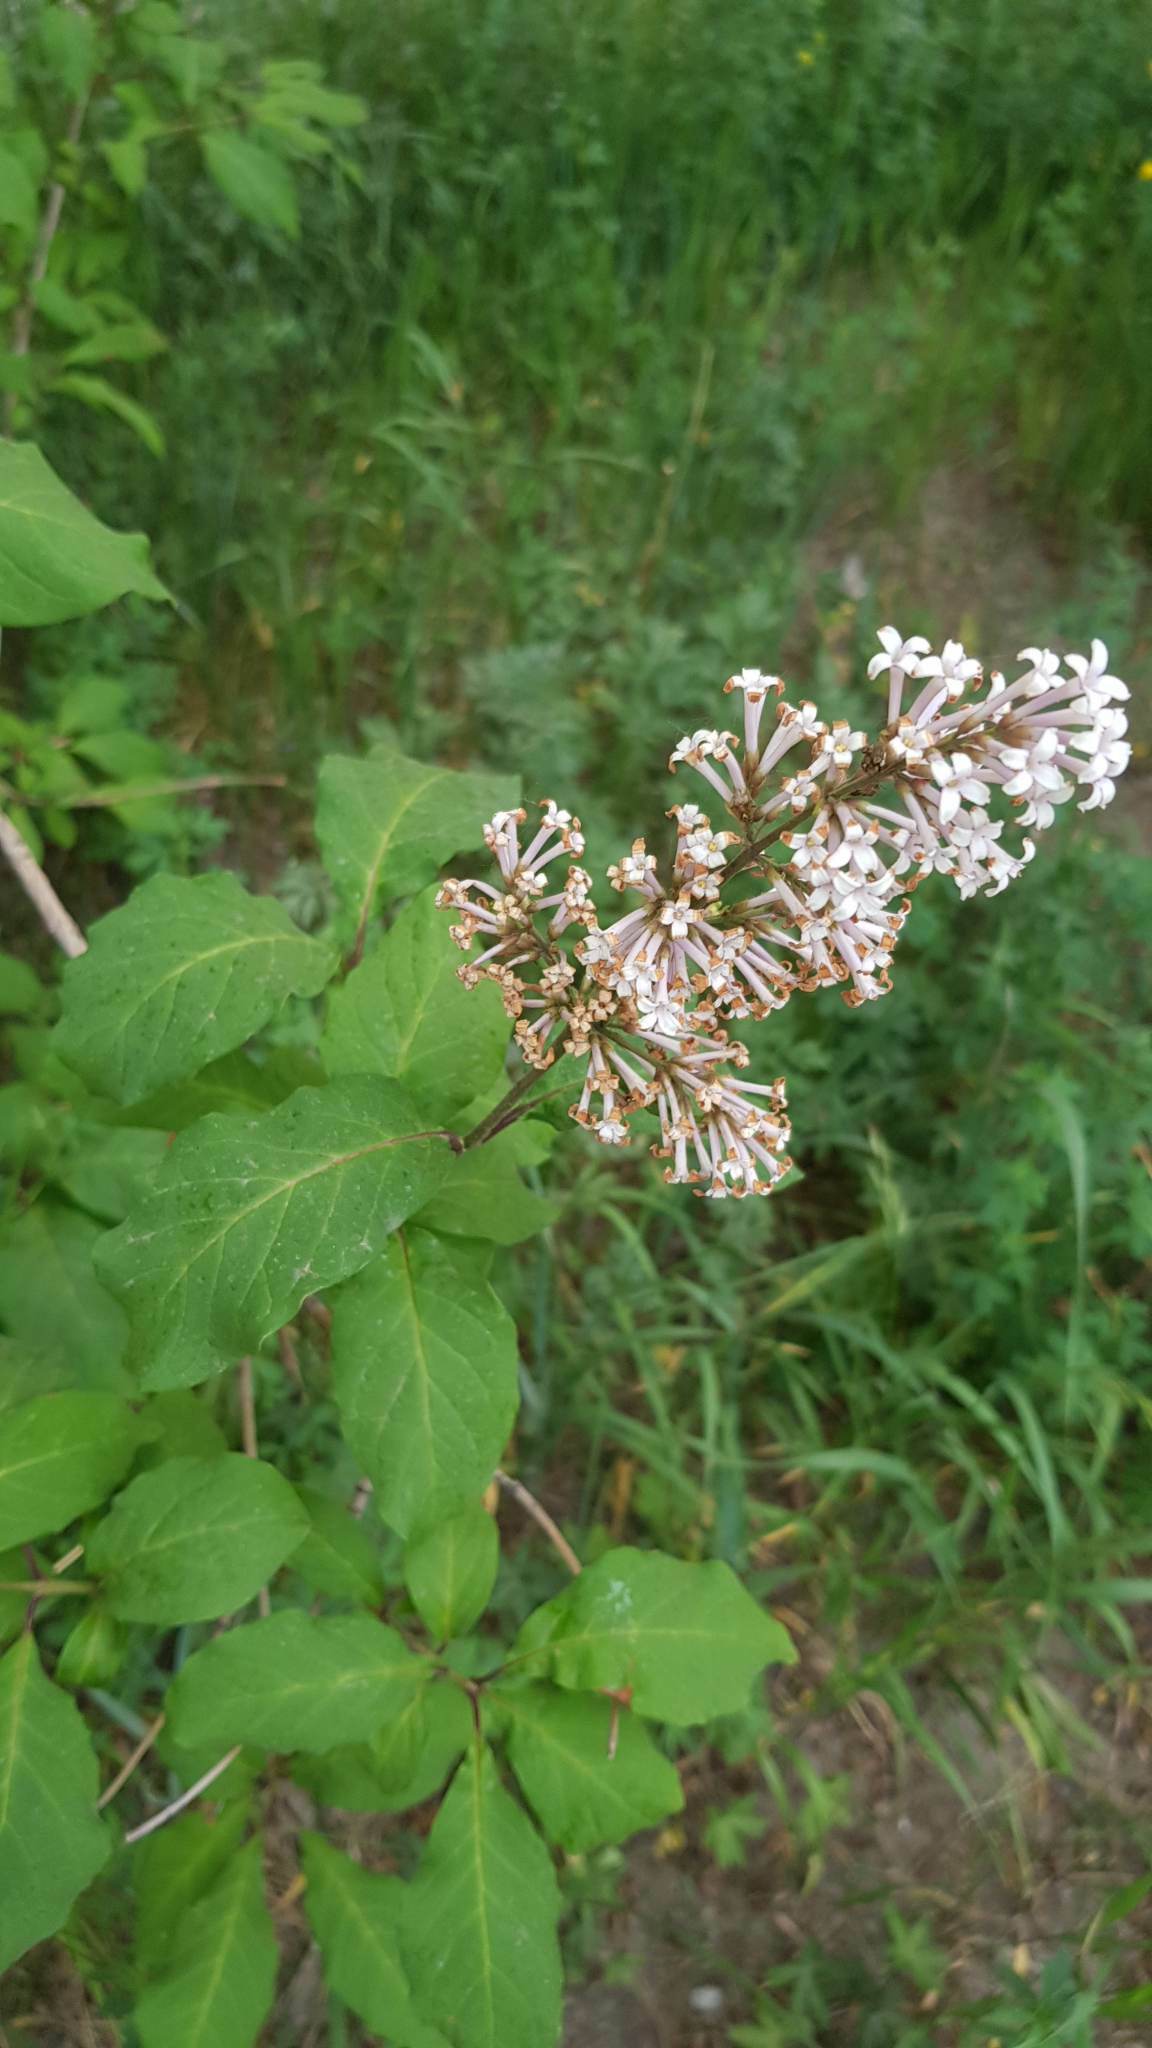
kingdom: Plantae
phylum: Tracheophyta
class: Magnoliopsida
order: Lamiales
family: Oleaceae
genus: Syringa
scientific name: Syringa josikaea
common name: Hungarian lilac
